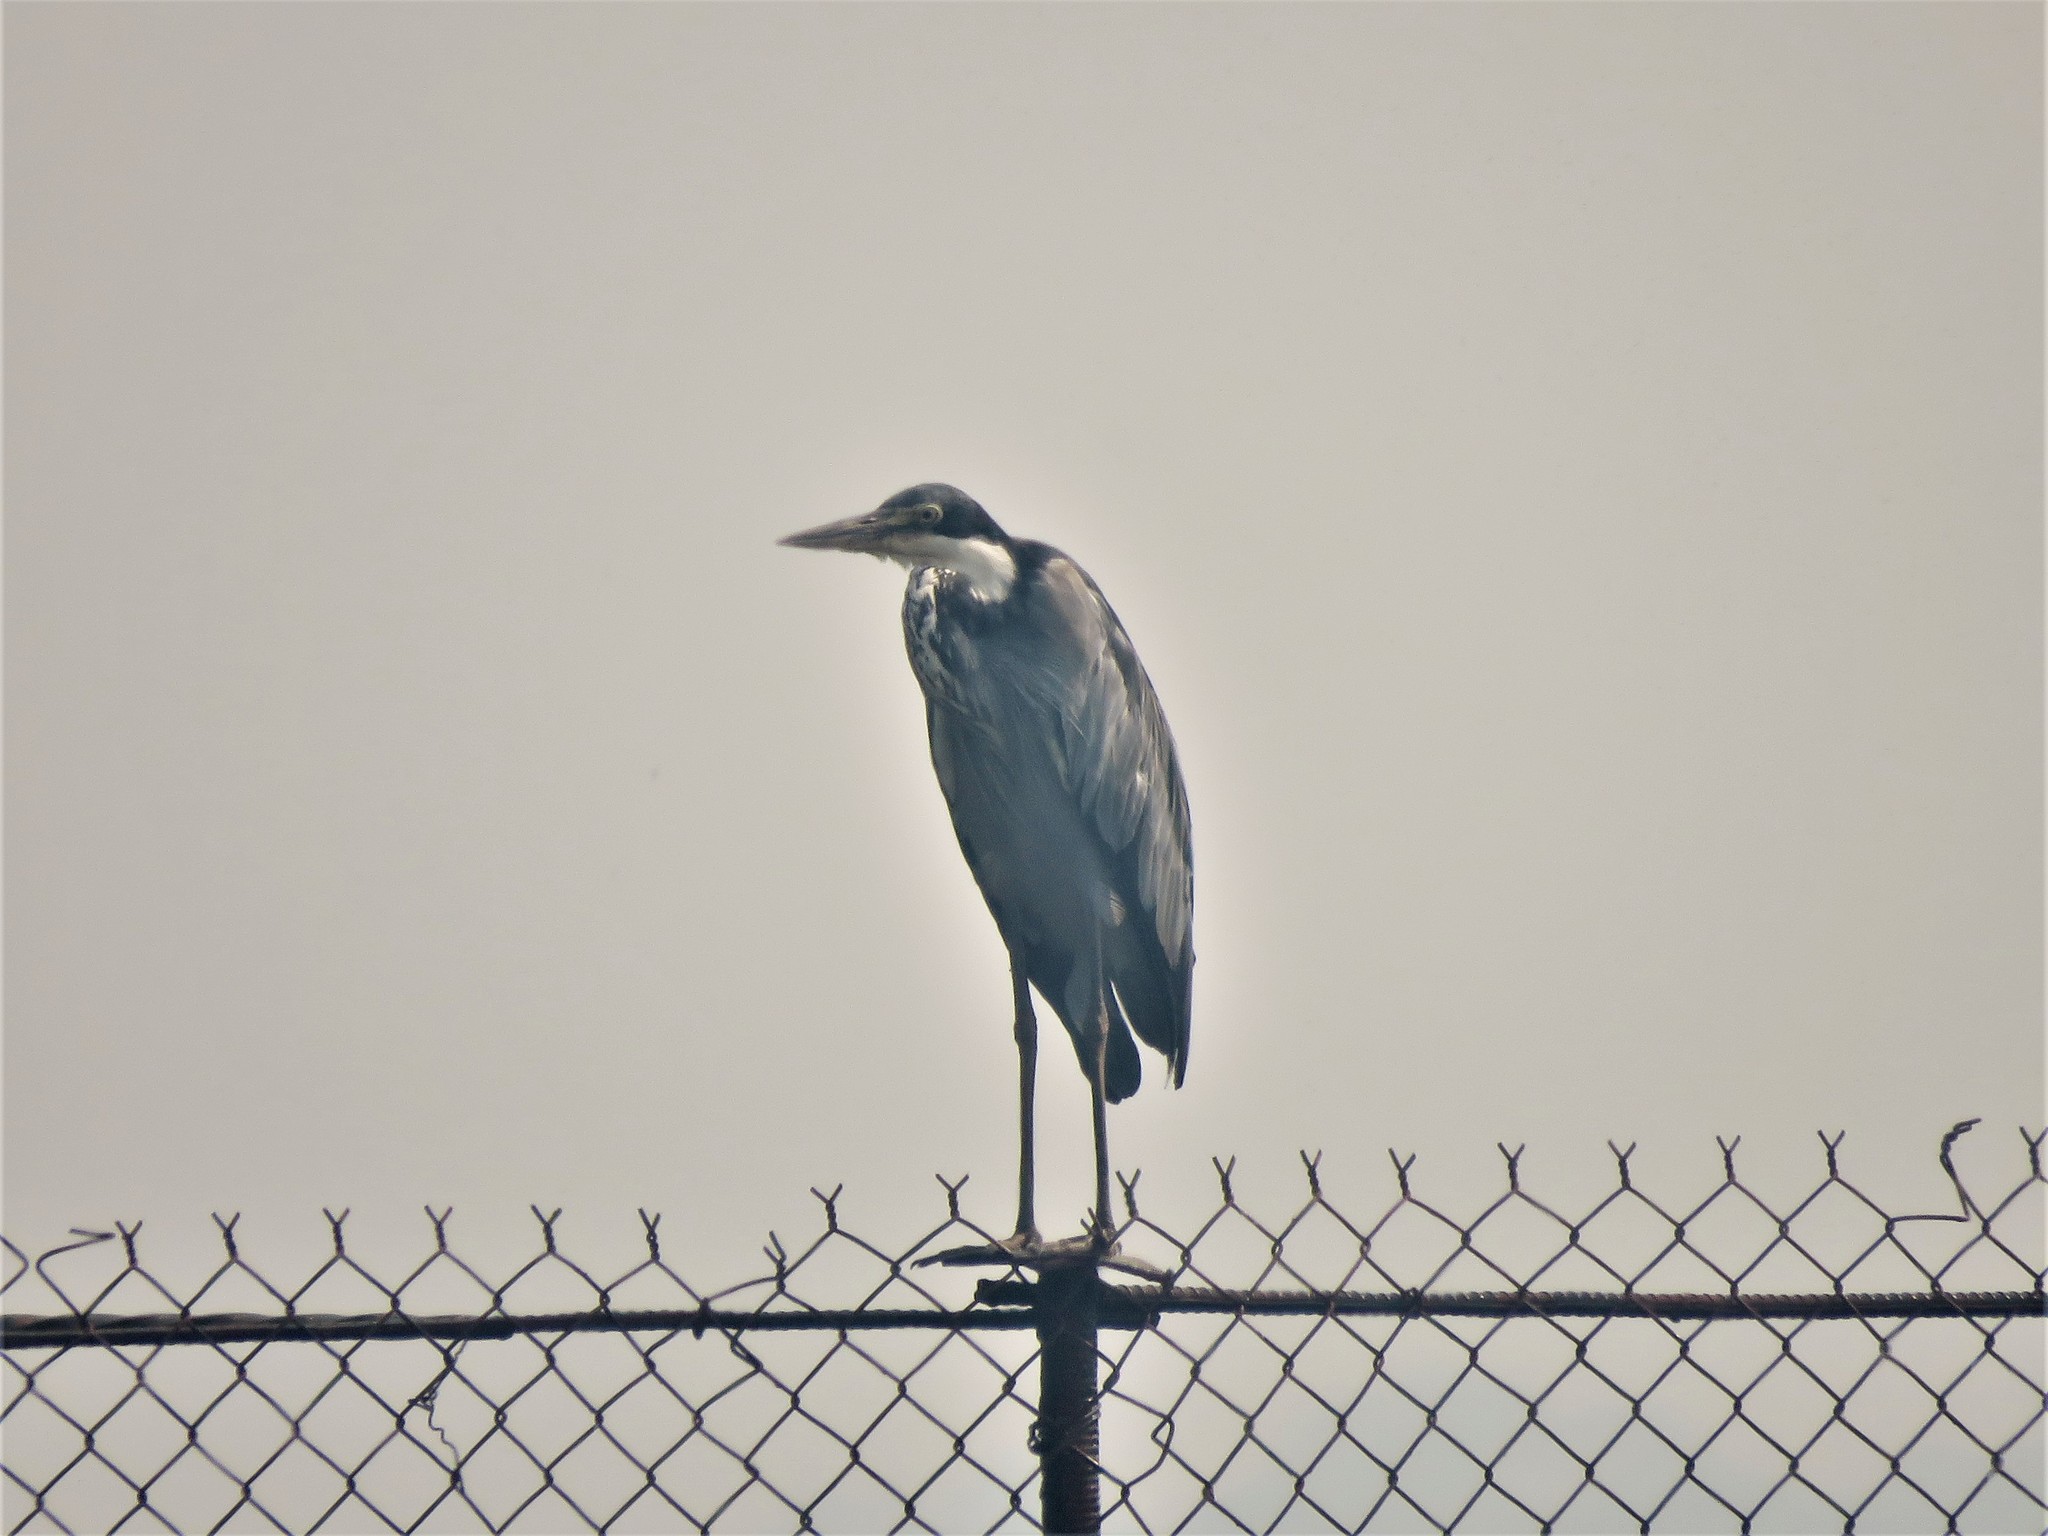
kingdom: Animalia
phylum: Chordata
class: Aves
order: Pelecaniformes
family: Ardeidae
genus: Ardea
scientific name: Ardea melanocephala
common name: Black-headed heron
